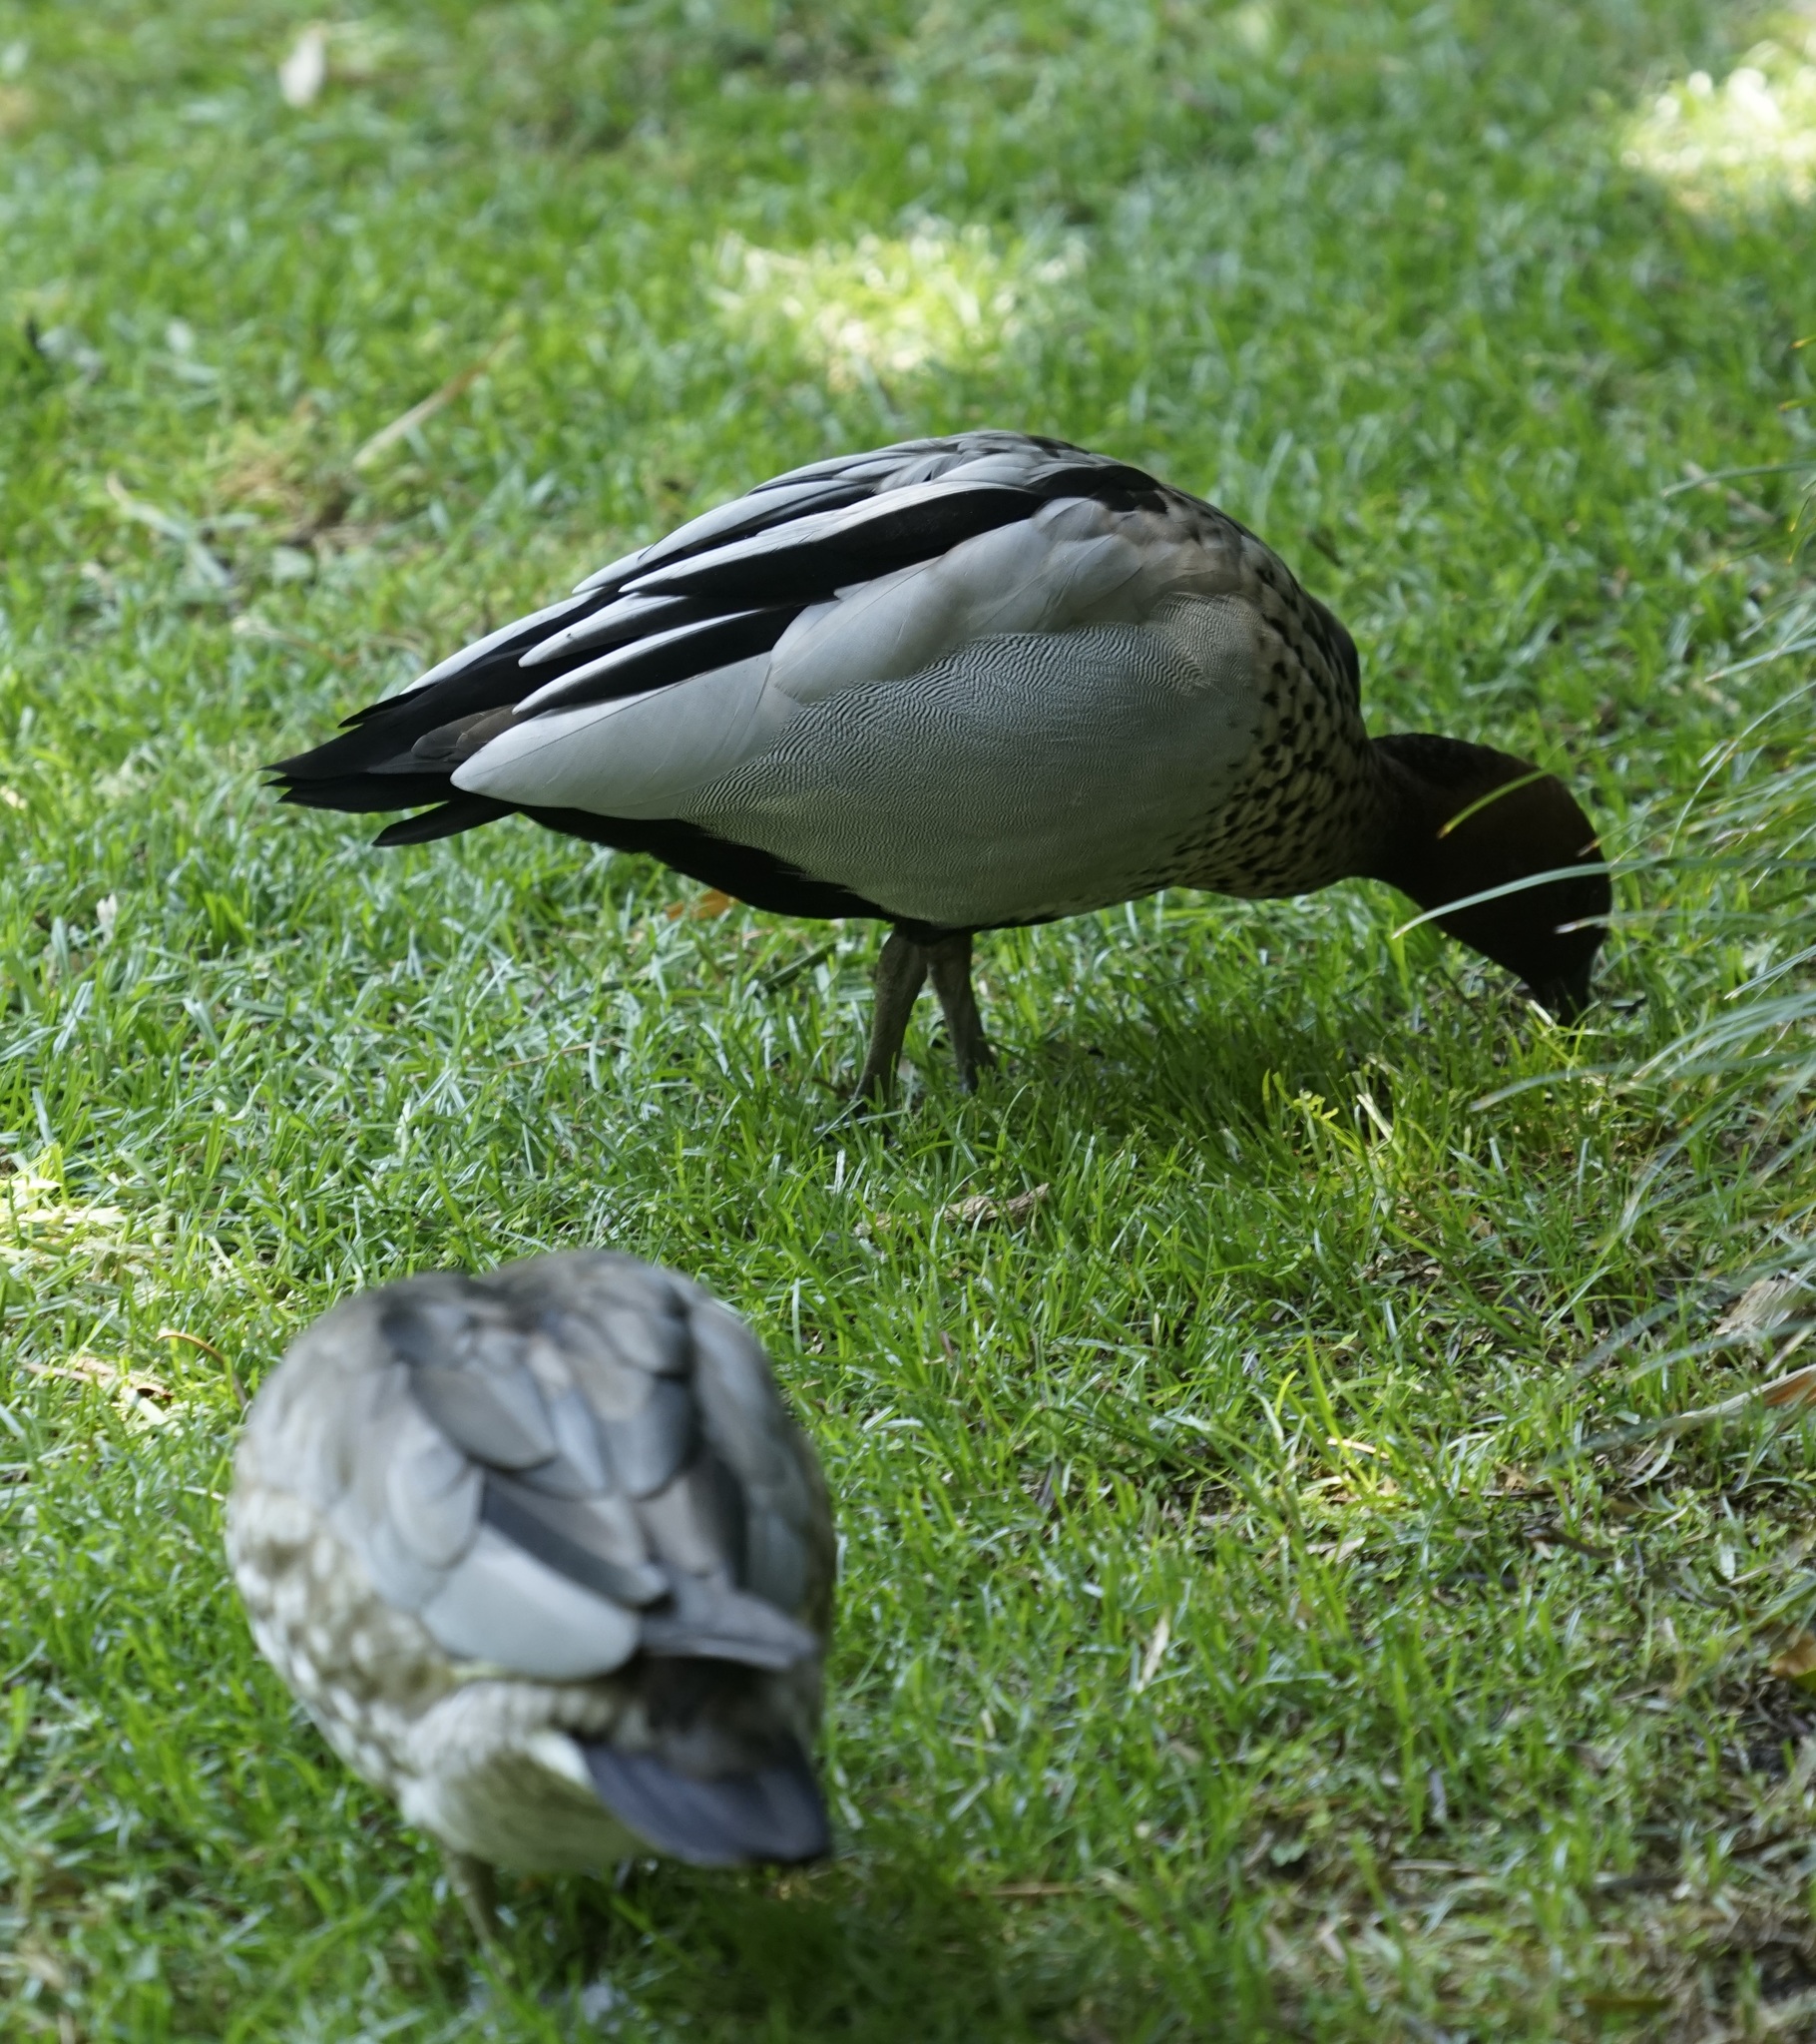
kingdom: Animalia
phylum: Chordata
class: Aves
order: Anseriformes
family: Anatidae
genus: Chenonetta
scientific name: Chenonetta jubata
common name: Maned duck
